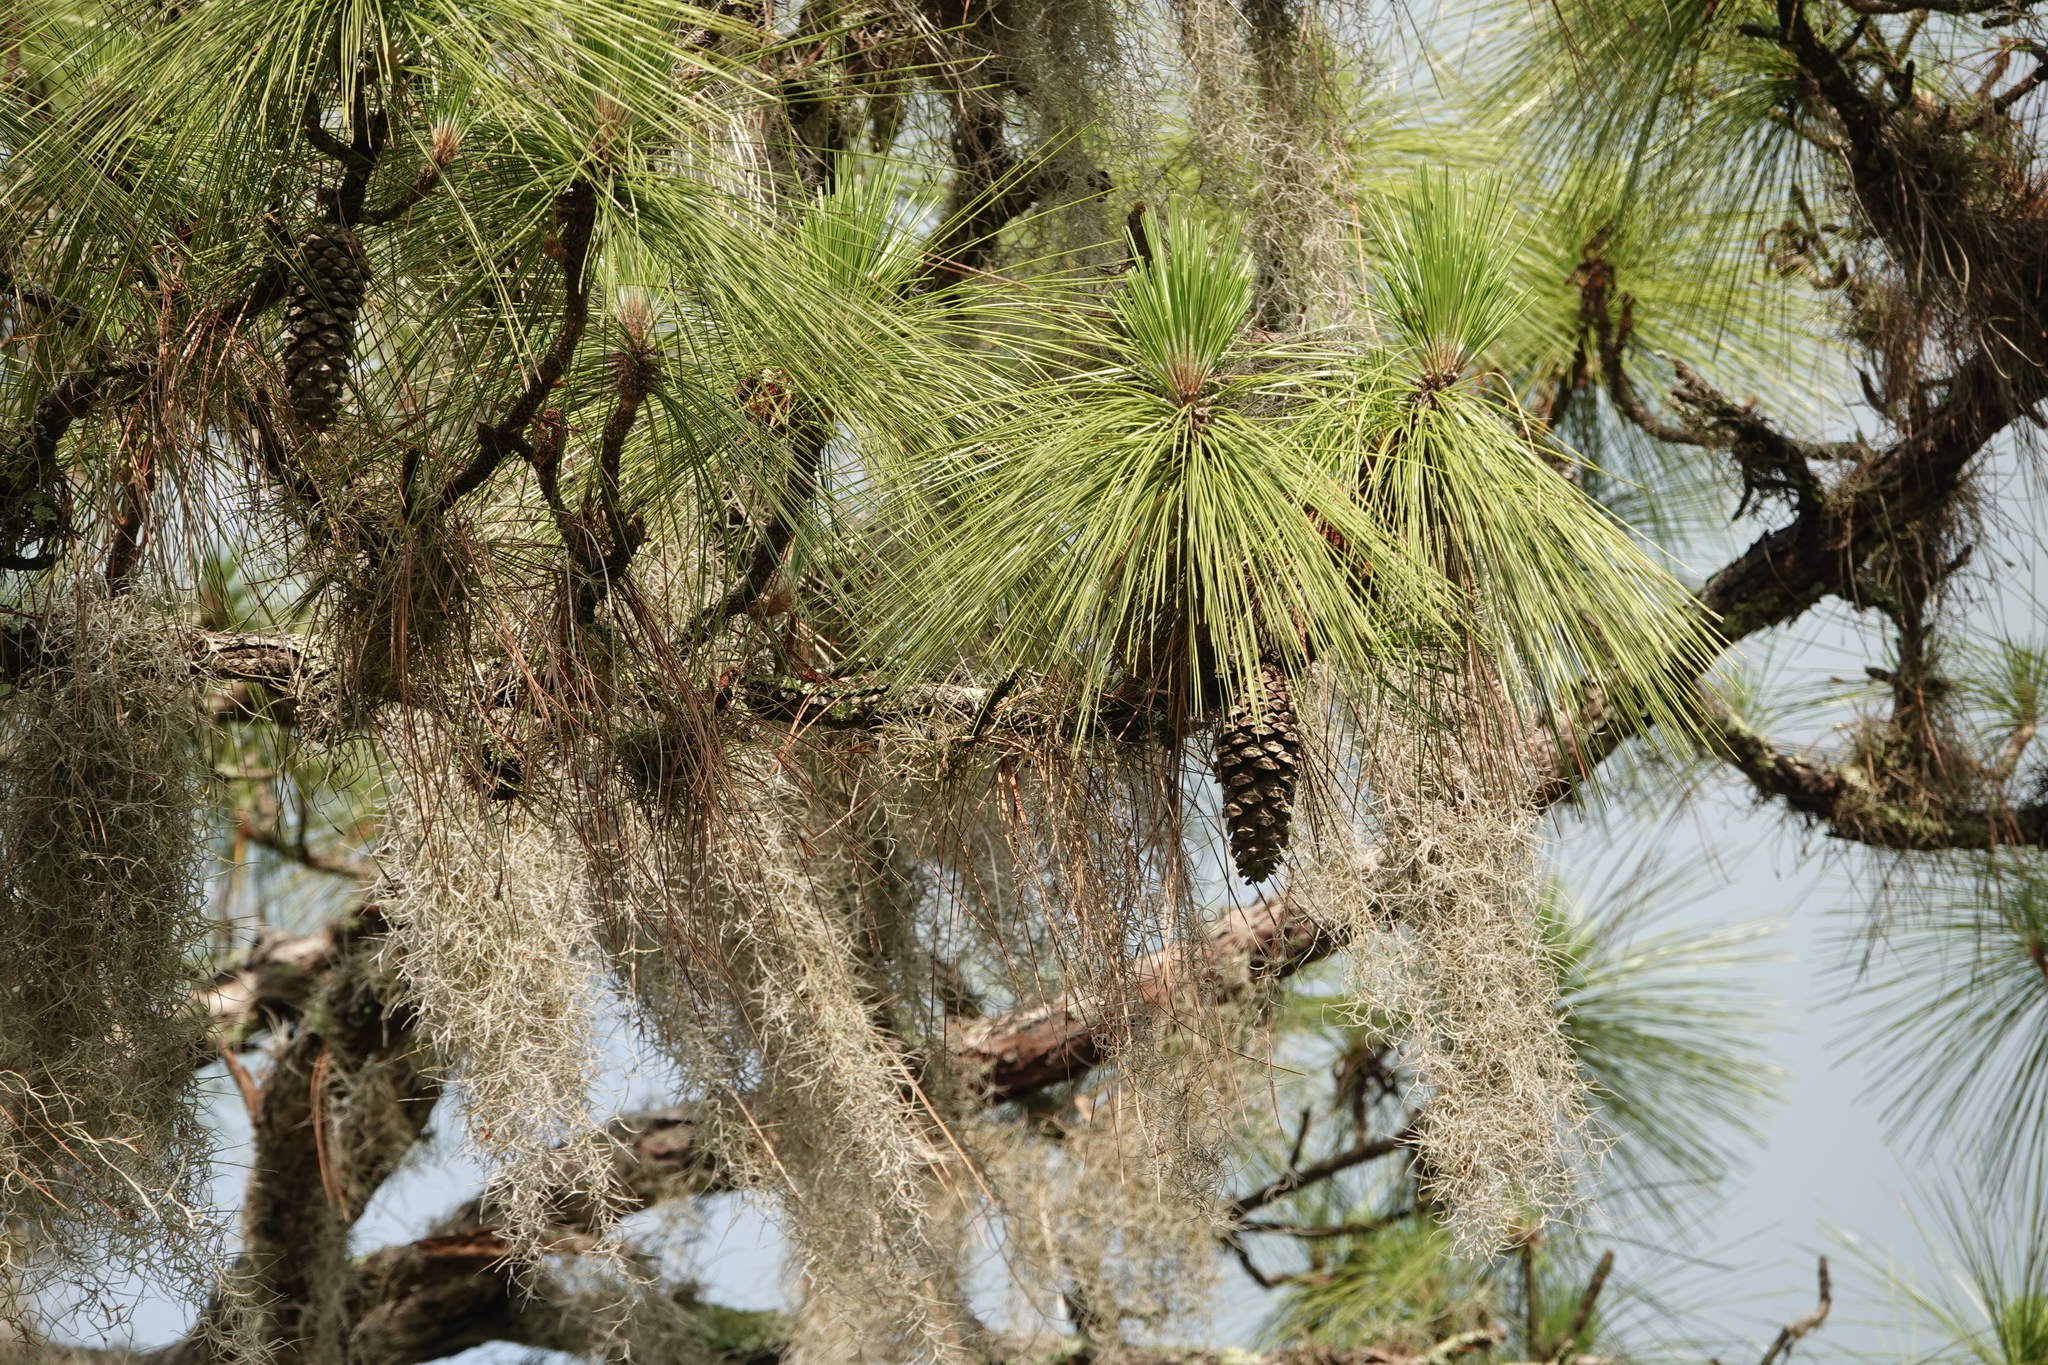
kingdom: Plantae
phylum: Tracheophyta
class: Pinopsida
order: Pinales
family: Pinaceae
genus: Pinus
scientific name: Pinus palustris
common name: Longleaf pine
